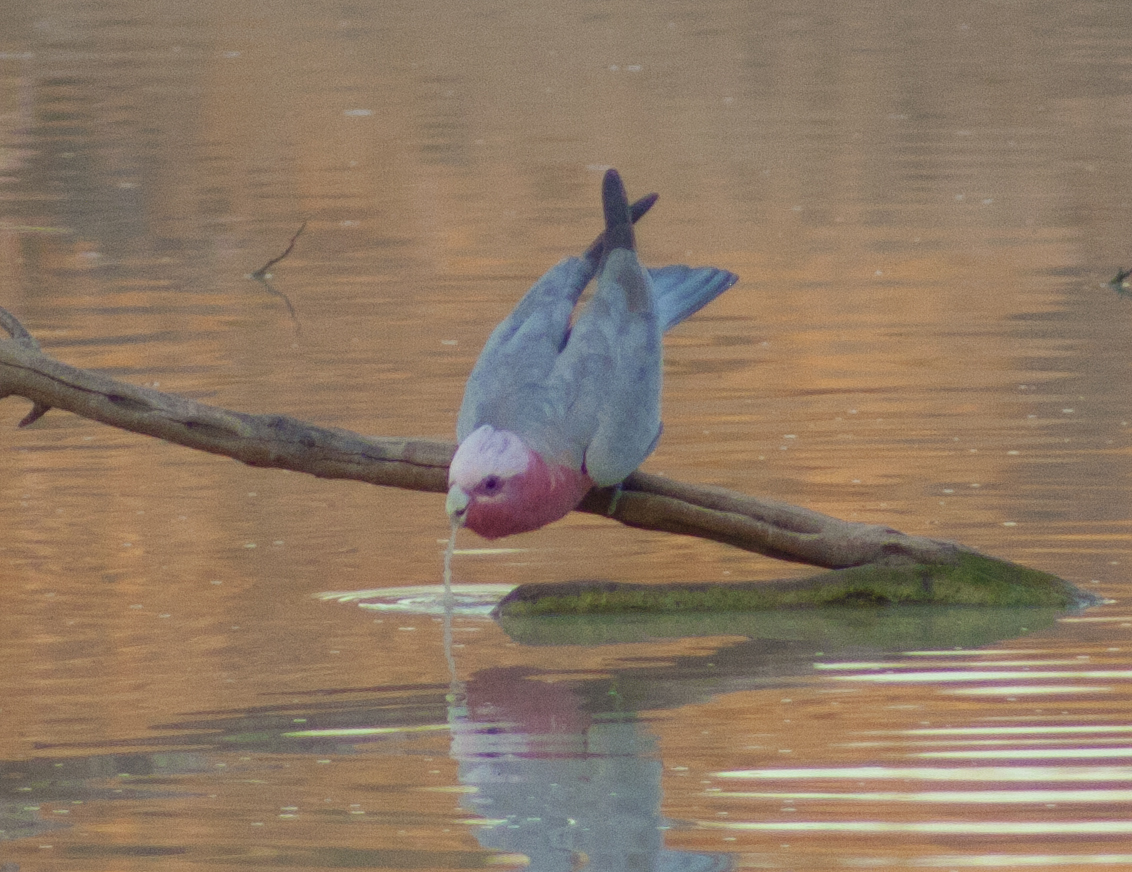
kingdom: Animalia
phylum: Chordata
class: Aves
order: Psittaciformes
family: Psittacidae
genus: Eolophus
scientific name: Eolophus roseicapilla
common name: Galah
